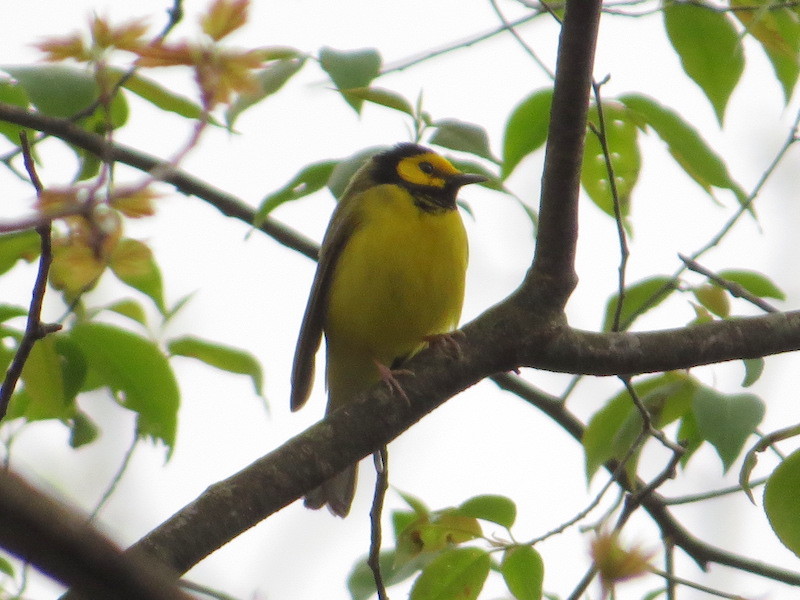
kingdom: Animalia
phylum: Chordata
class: Aves
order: Passeriformes
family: Parulidae
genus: Setophaga
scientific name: Setophaga citrina
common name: Hooded warbler
